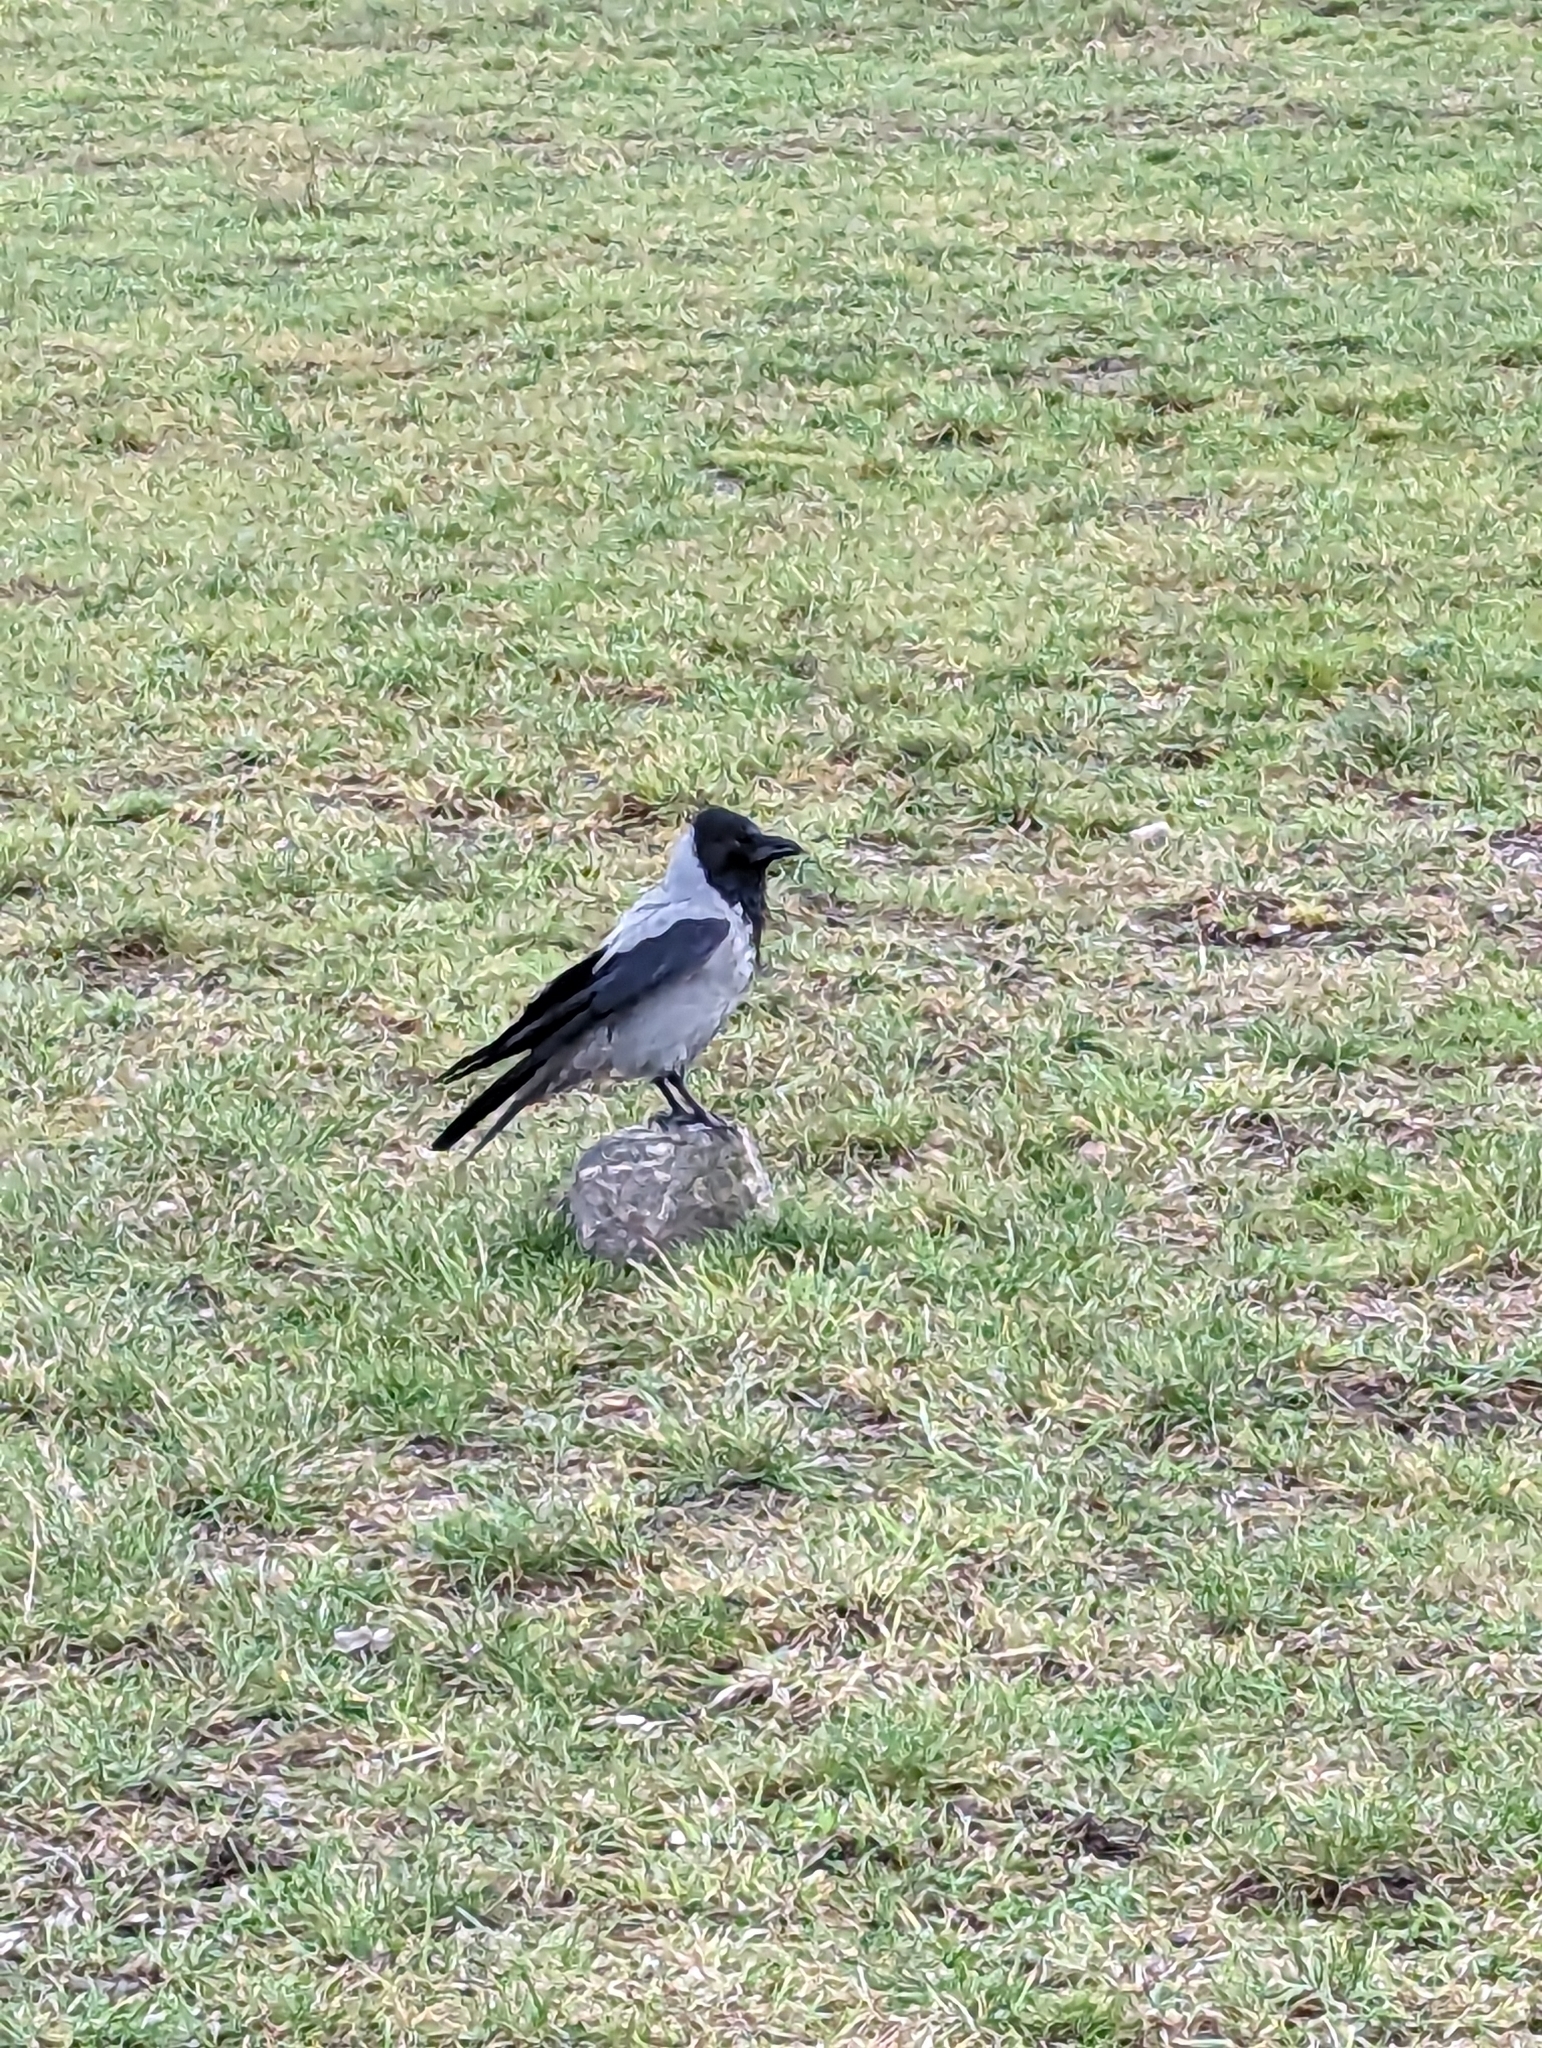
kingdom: Animalia
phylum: Chordata
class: Aves
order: Passeriformes
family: Corvidae
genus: Corvus
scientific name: Corvus cornix
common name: Hooded crow
